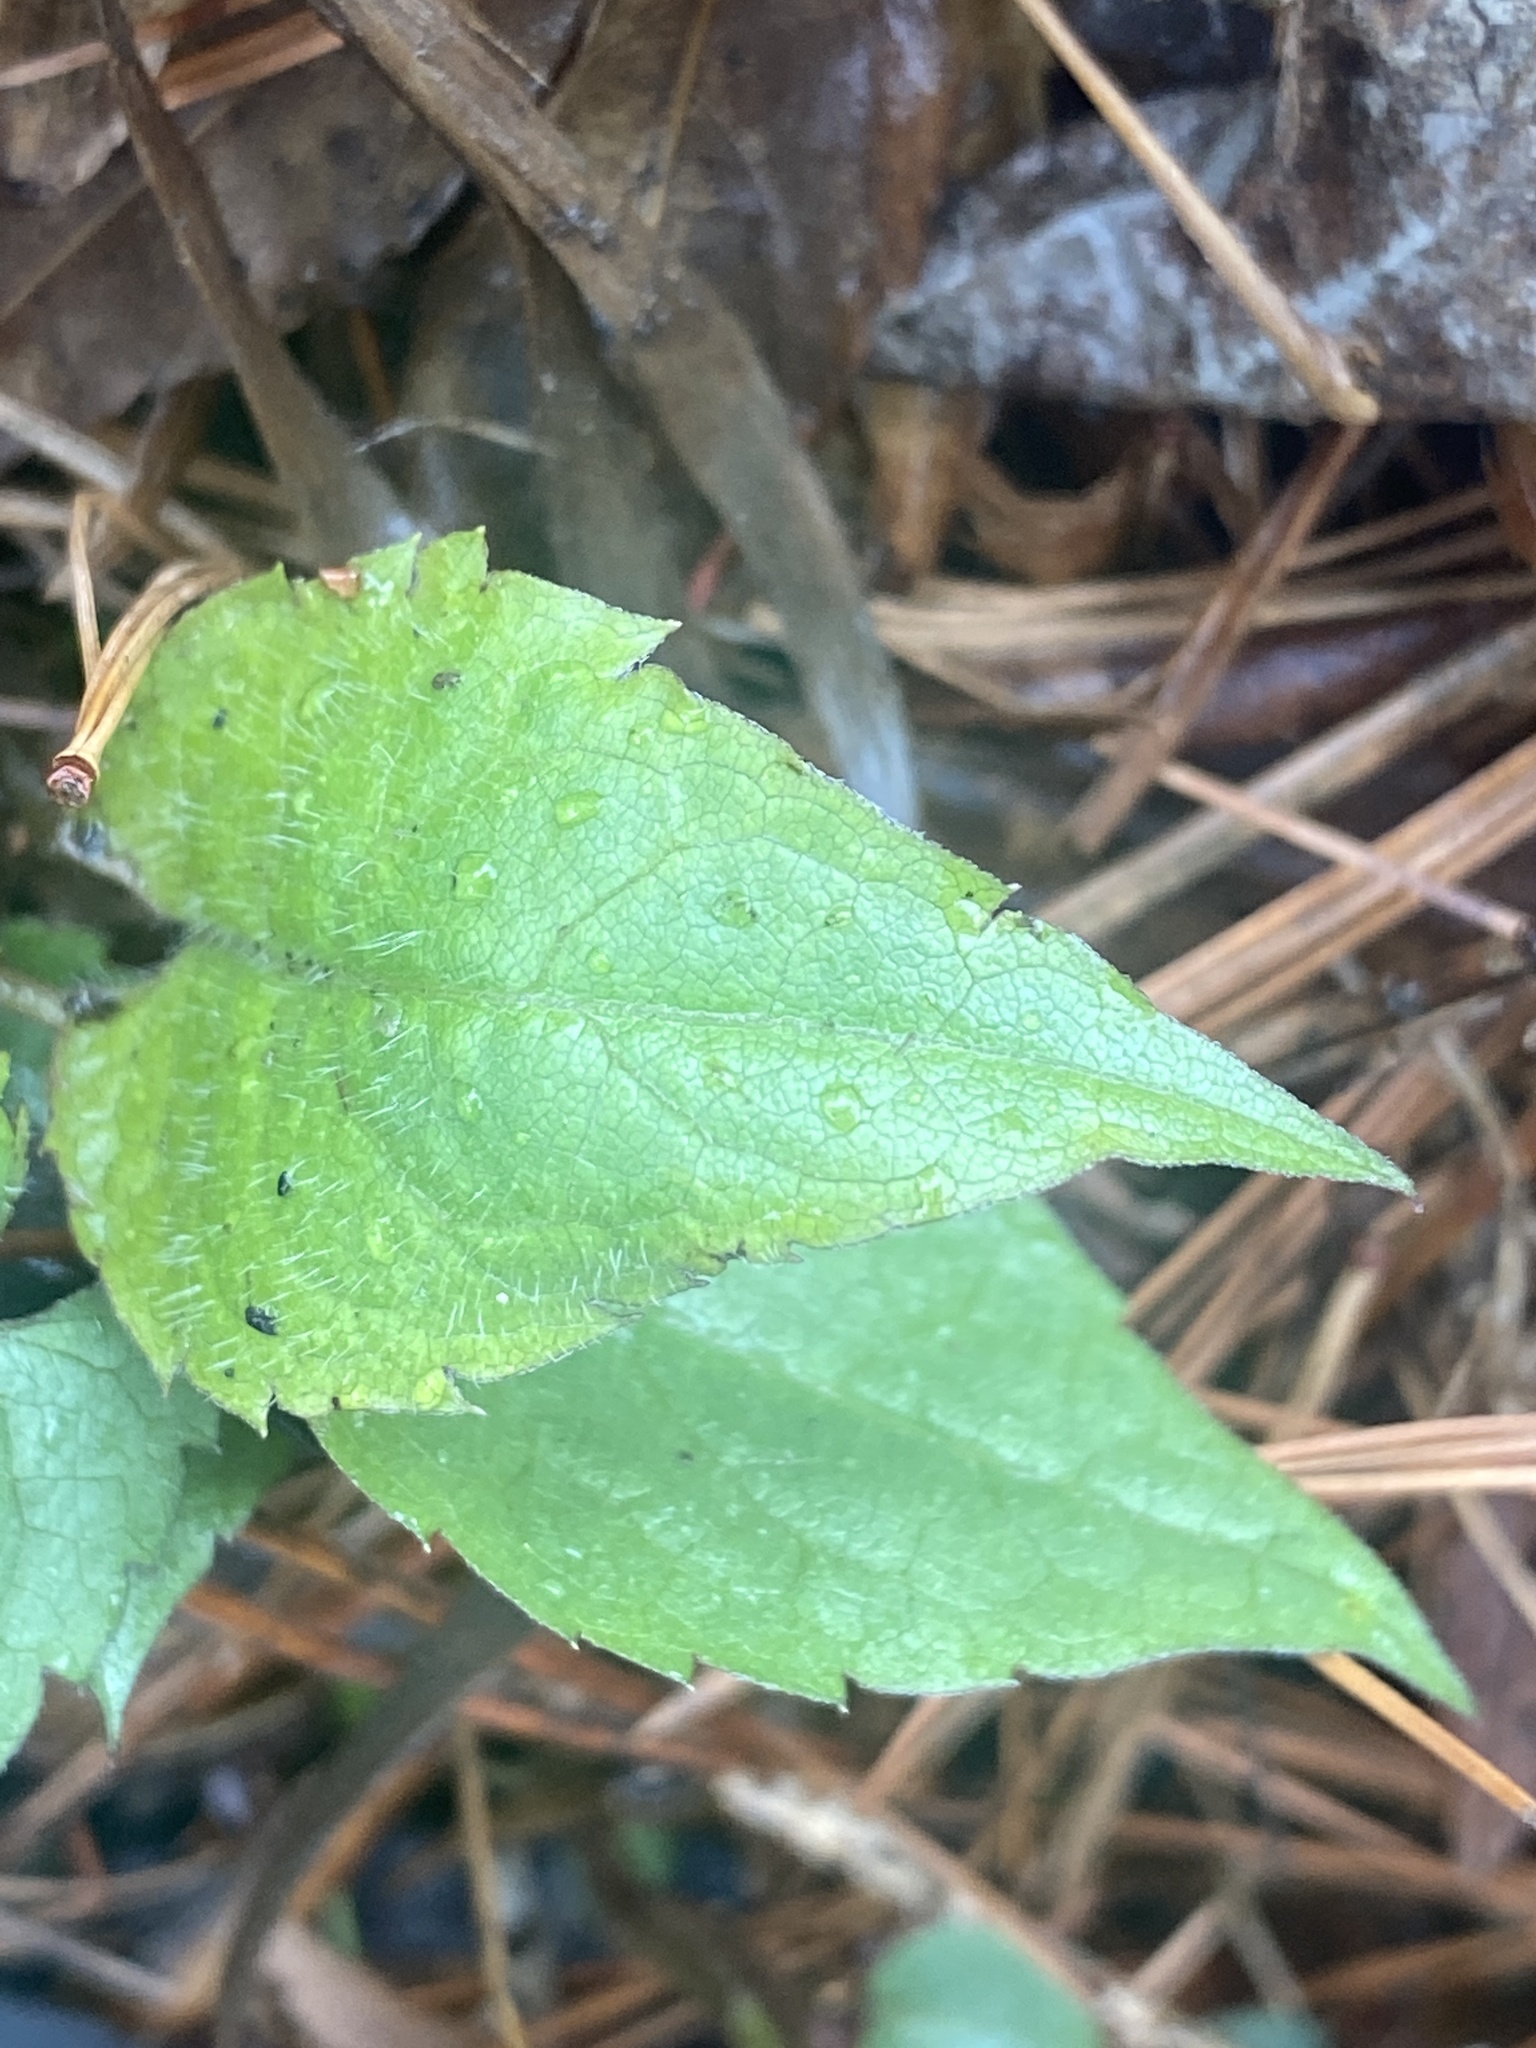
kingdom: Plantae
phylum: Tracheophyta
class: Magnoliopsida
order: Asterales
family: Asteraceae
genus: Eurybia
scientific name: Eurybia divaricata
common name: White wood aster
